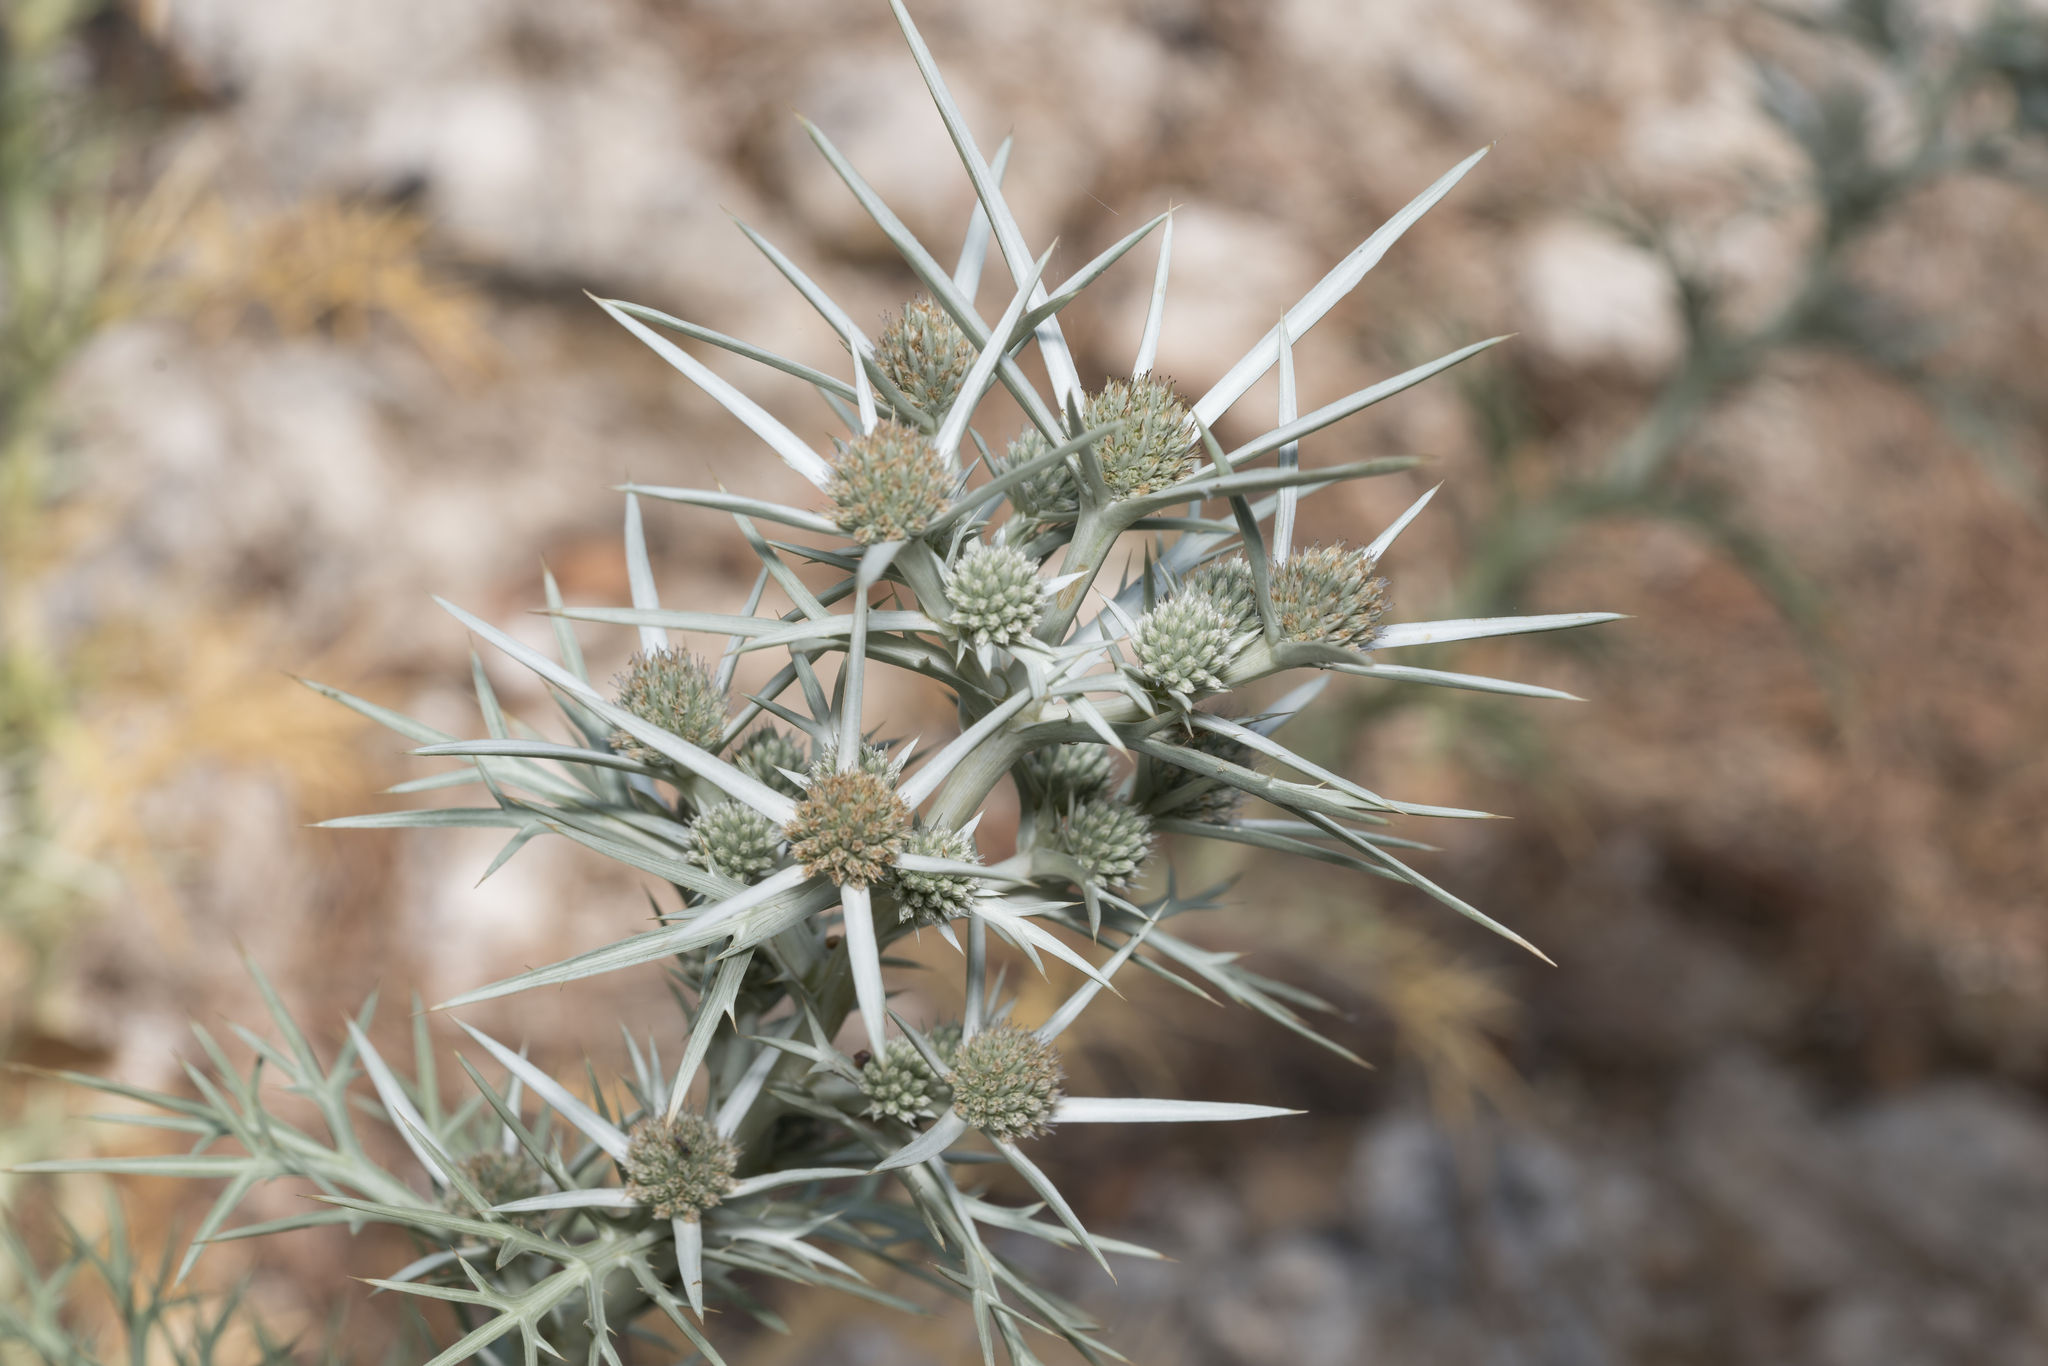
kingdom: Plantae
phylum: Tracheophyta
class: Magnoliopsida
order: Apiales
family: Apiaceae
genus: Eryngium
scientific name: Eryngium glomeratum
